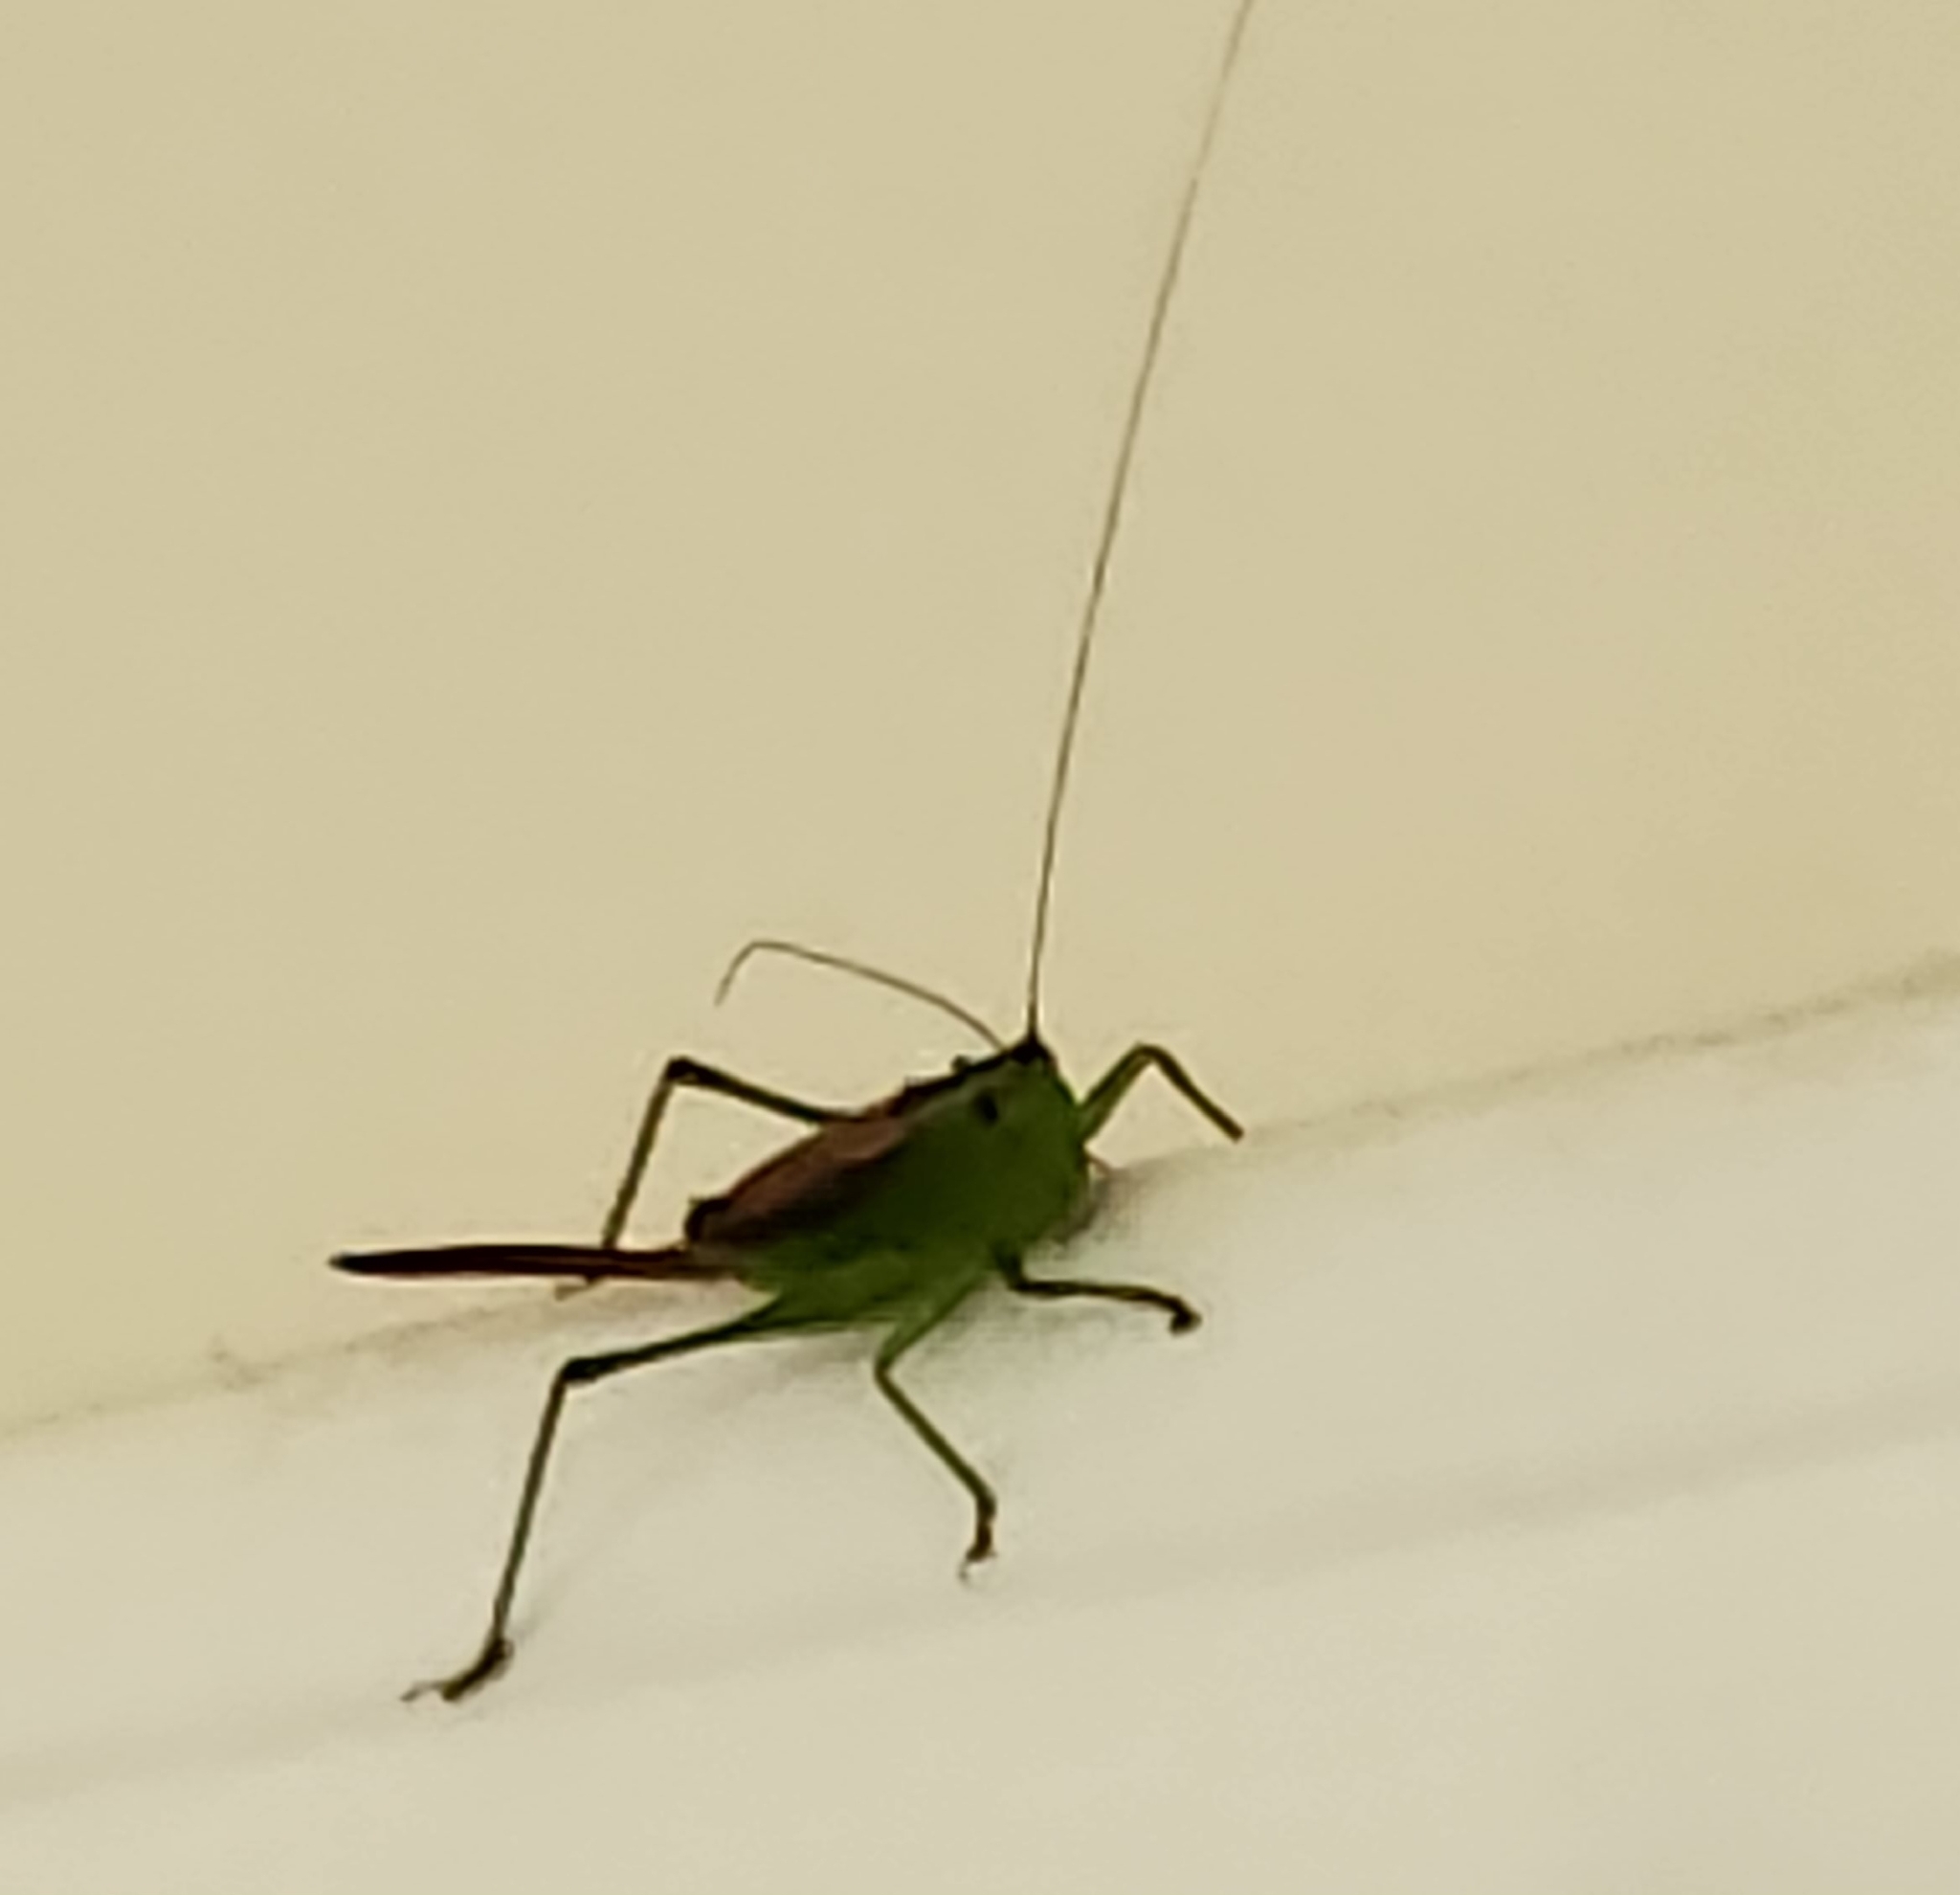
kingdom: Animalia
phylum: Arthropoda
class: Insecta
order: Orthoptera
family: Tettigoniidae
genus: Conocephalus
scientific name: Conocephalus brevipennis
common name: Short-winged meadow katydid
